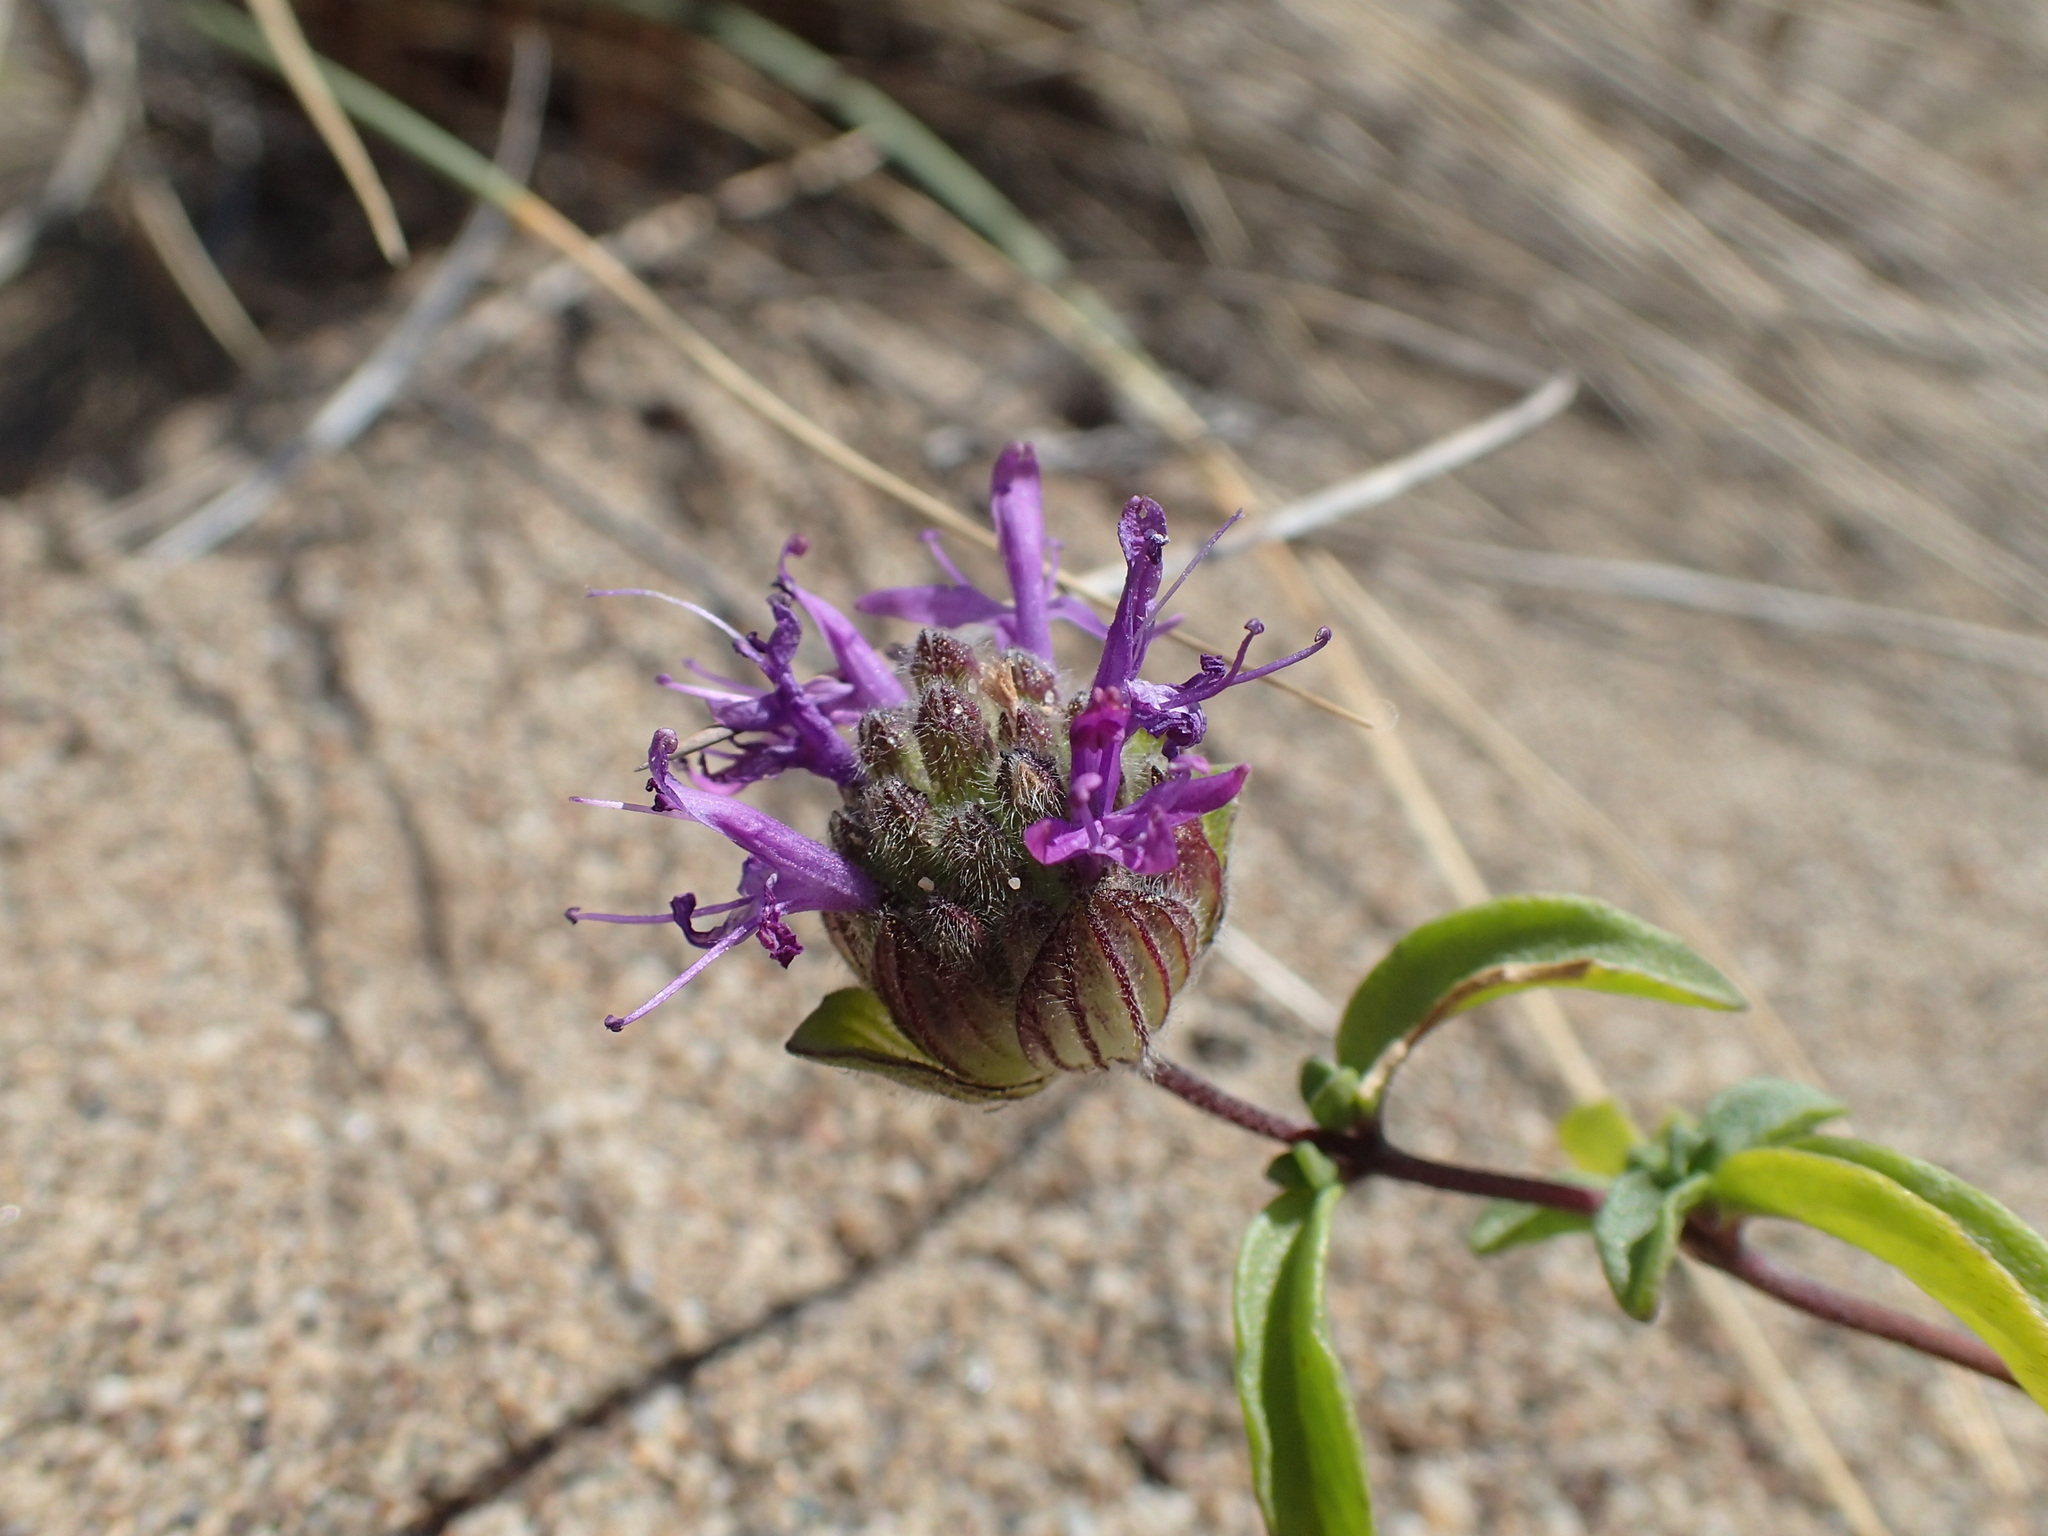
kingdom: Plantae
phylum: Tracheophyta
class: Magnoliopsida
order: Lamiales
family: Lamiaceae
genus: Monardella
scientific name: Monardella sinuata
